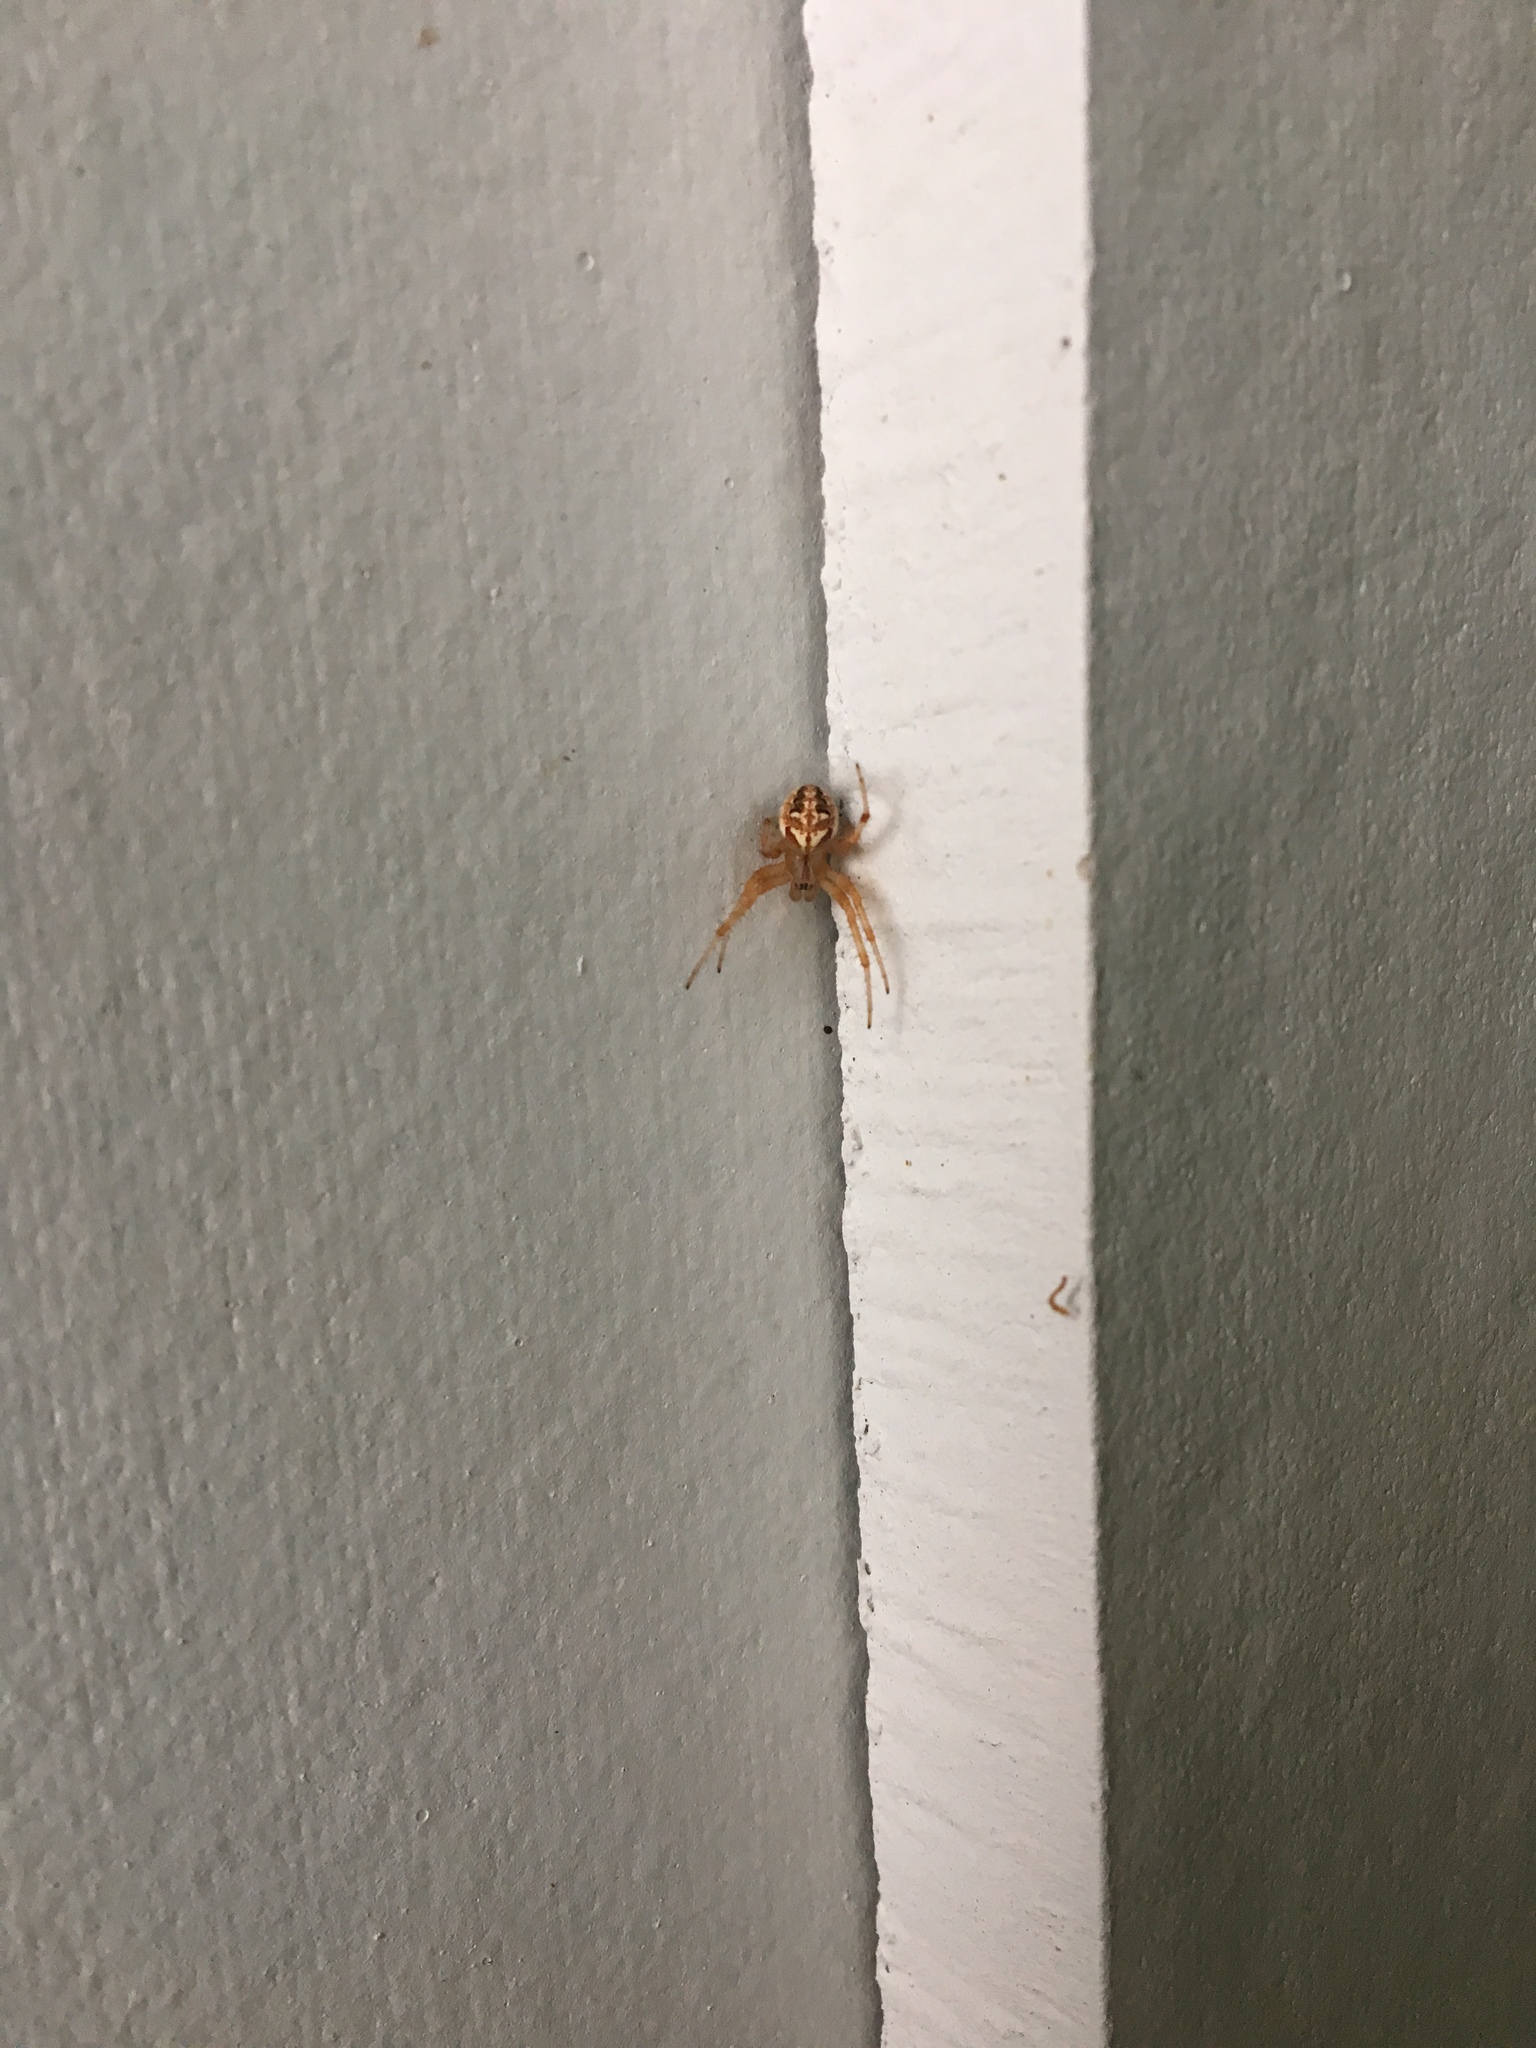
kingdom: Animalia
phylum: Arthropoda
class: Arachnida
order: Araneae
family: Araneidae
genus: Neoscona
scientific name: Neoscona arabesca
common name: Orb weavers
